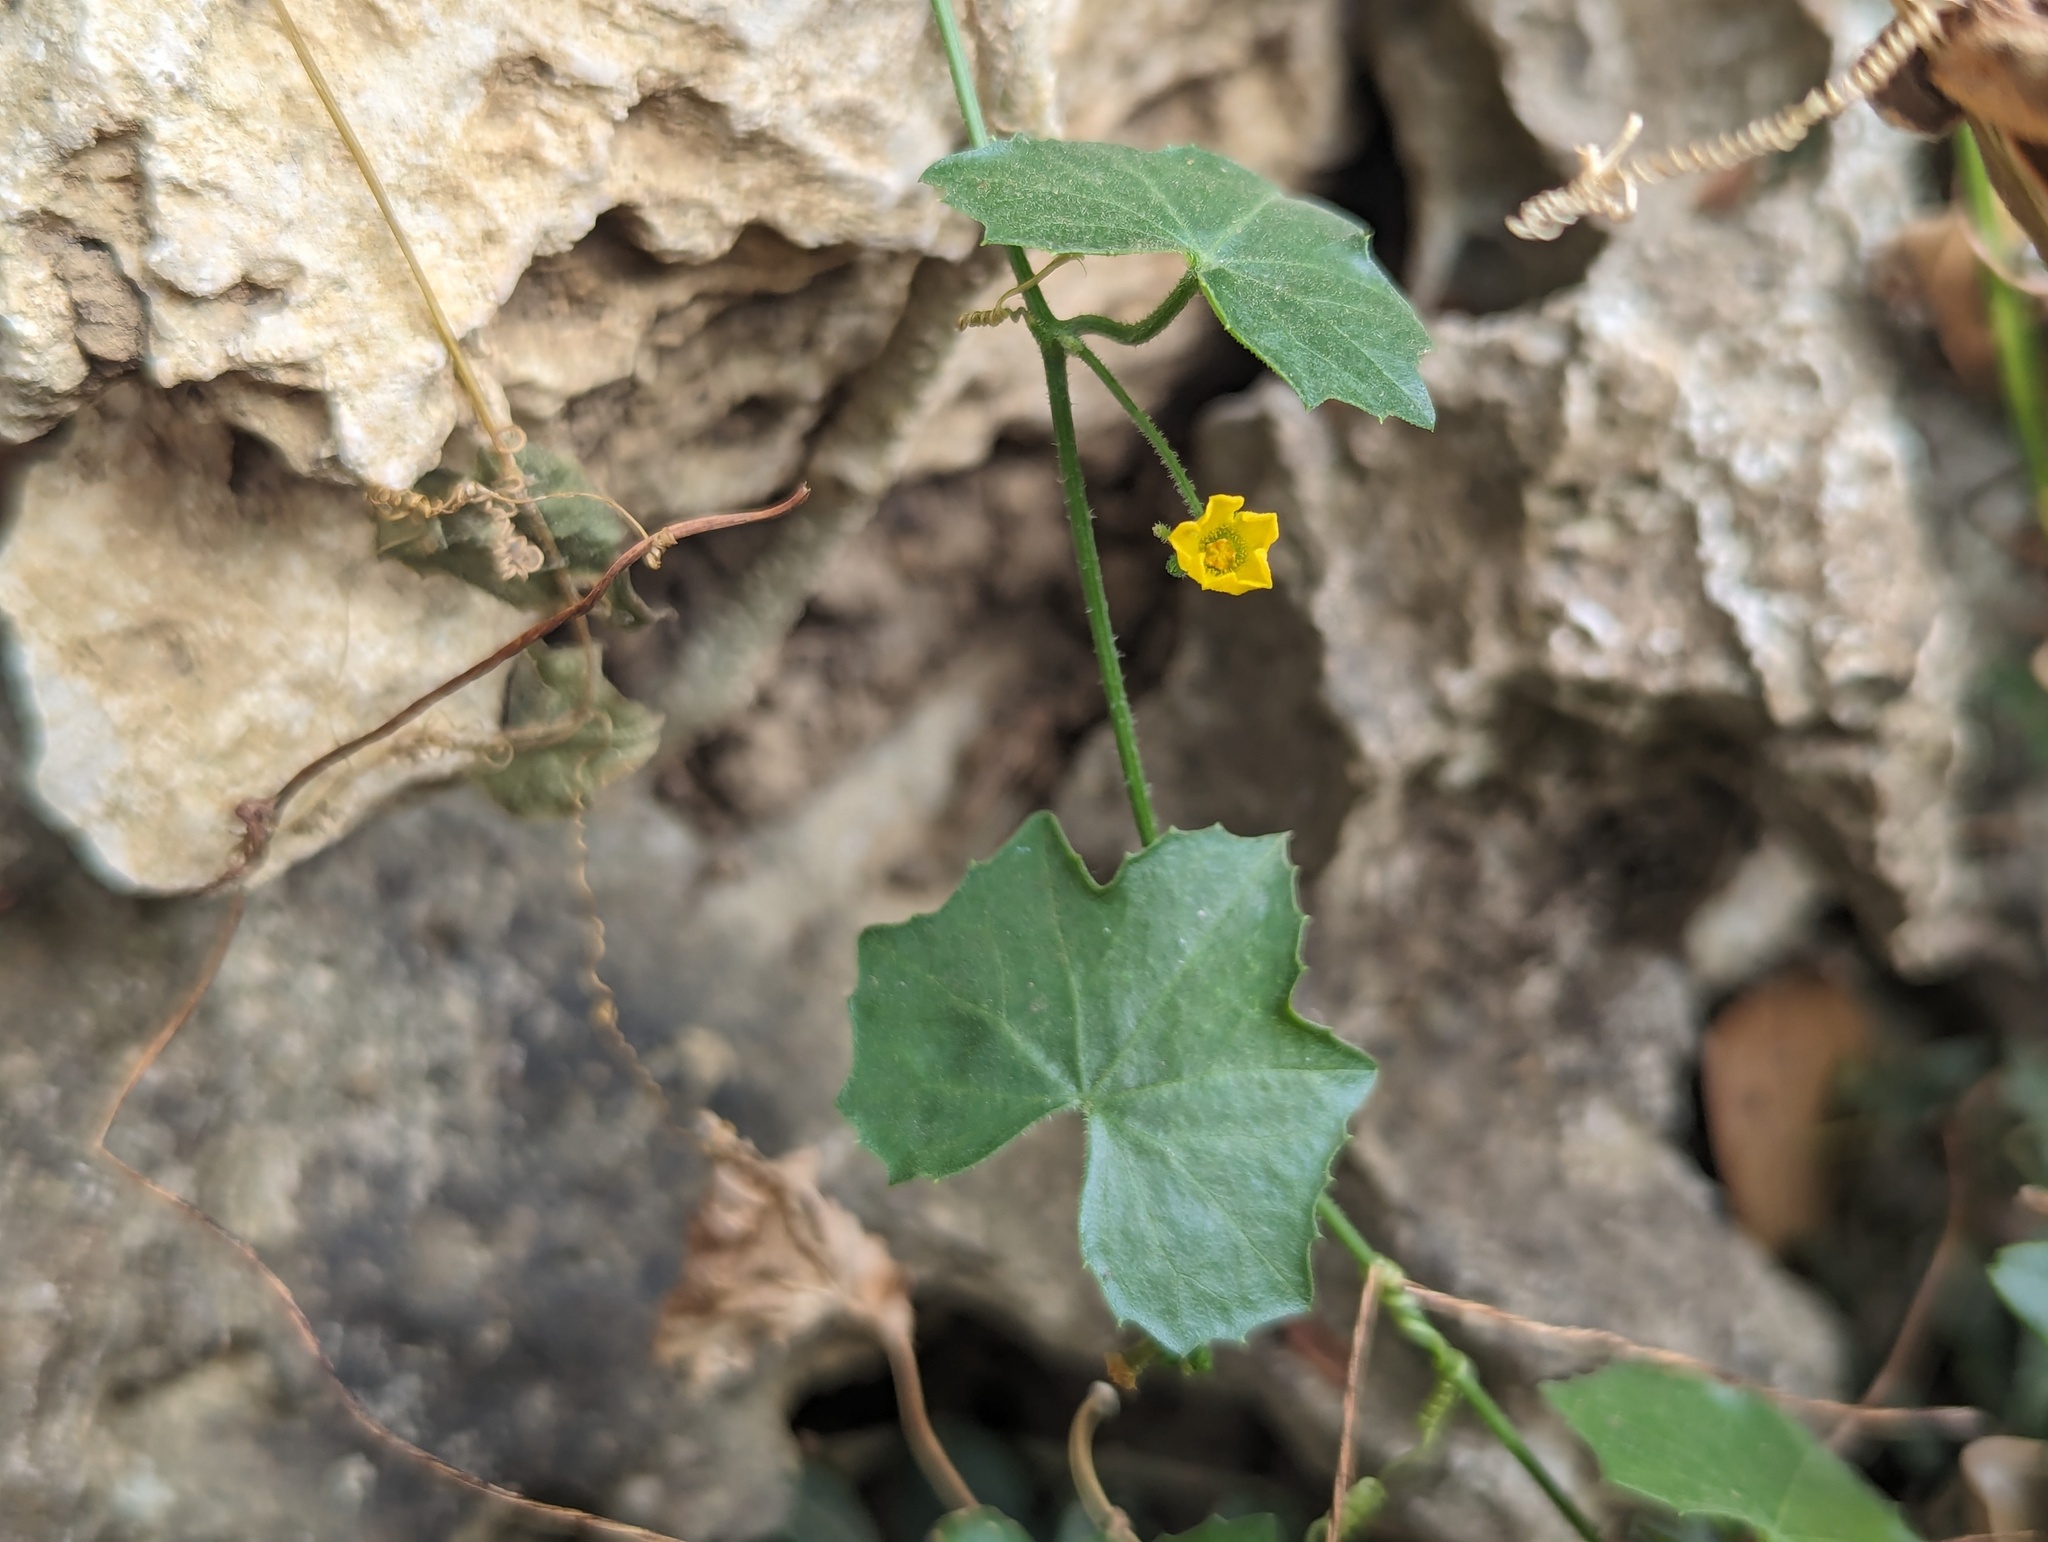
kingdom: Plantae
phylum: Tracheophyta
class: Magnoliopsida
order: Cucurbitales
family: Cucurbitaceae
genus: Melothria
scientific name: Melothria pendula
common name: Creeping-cucumber
